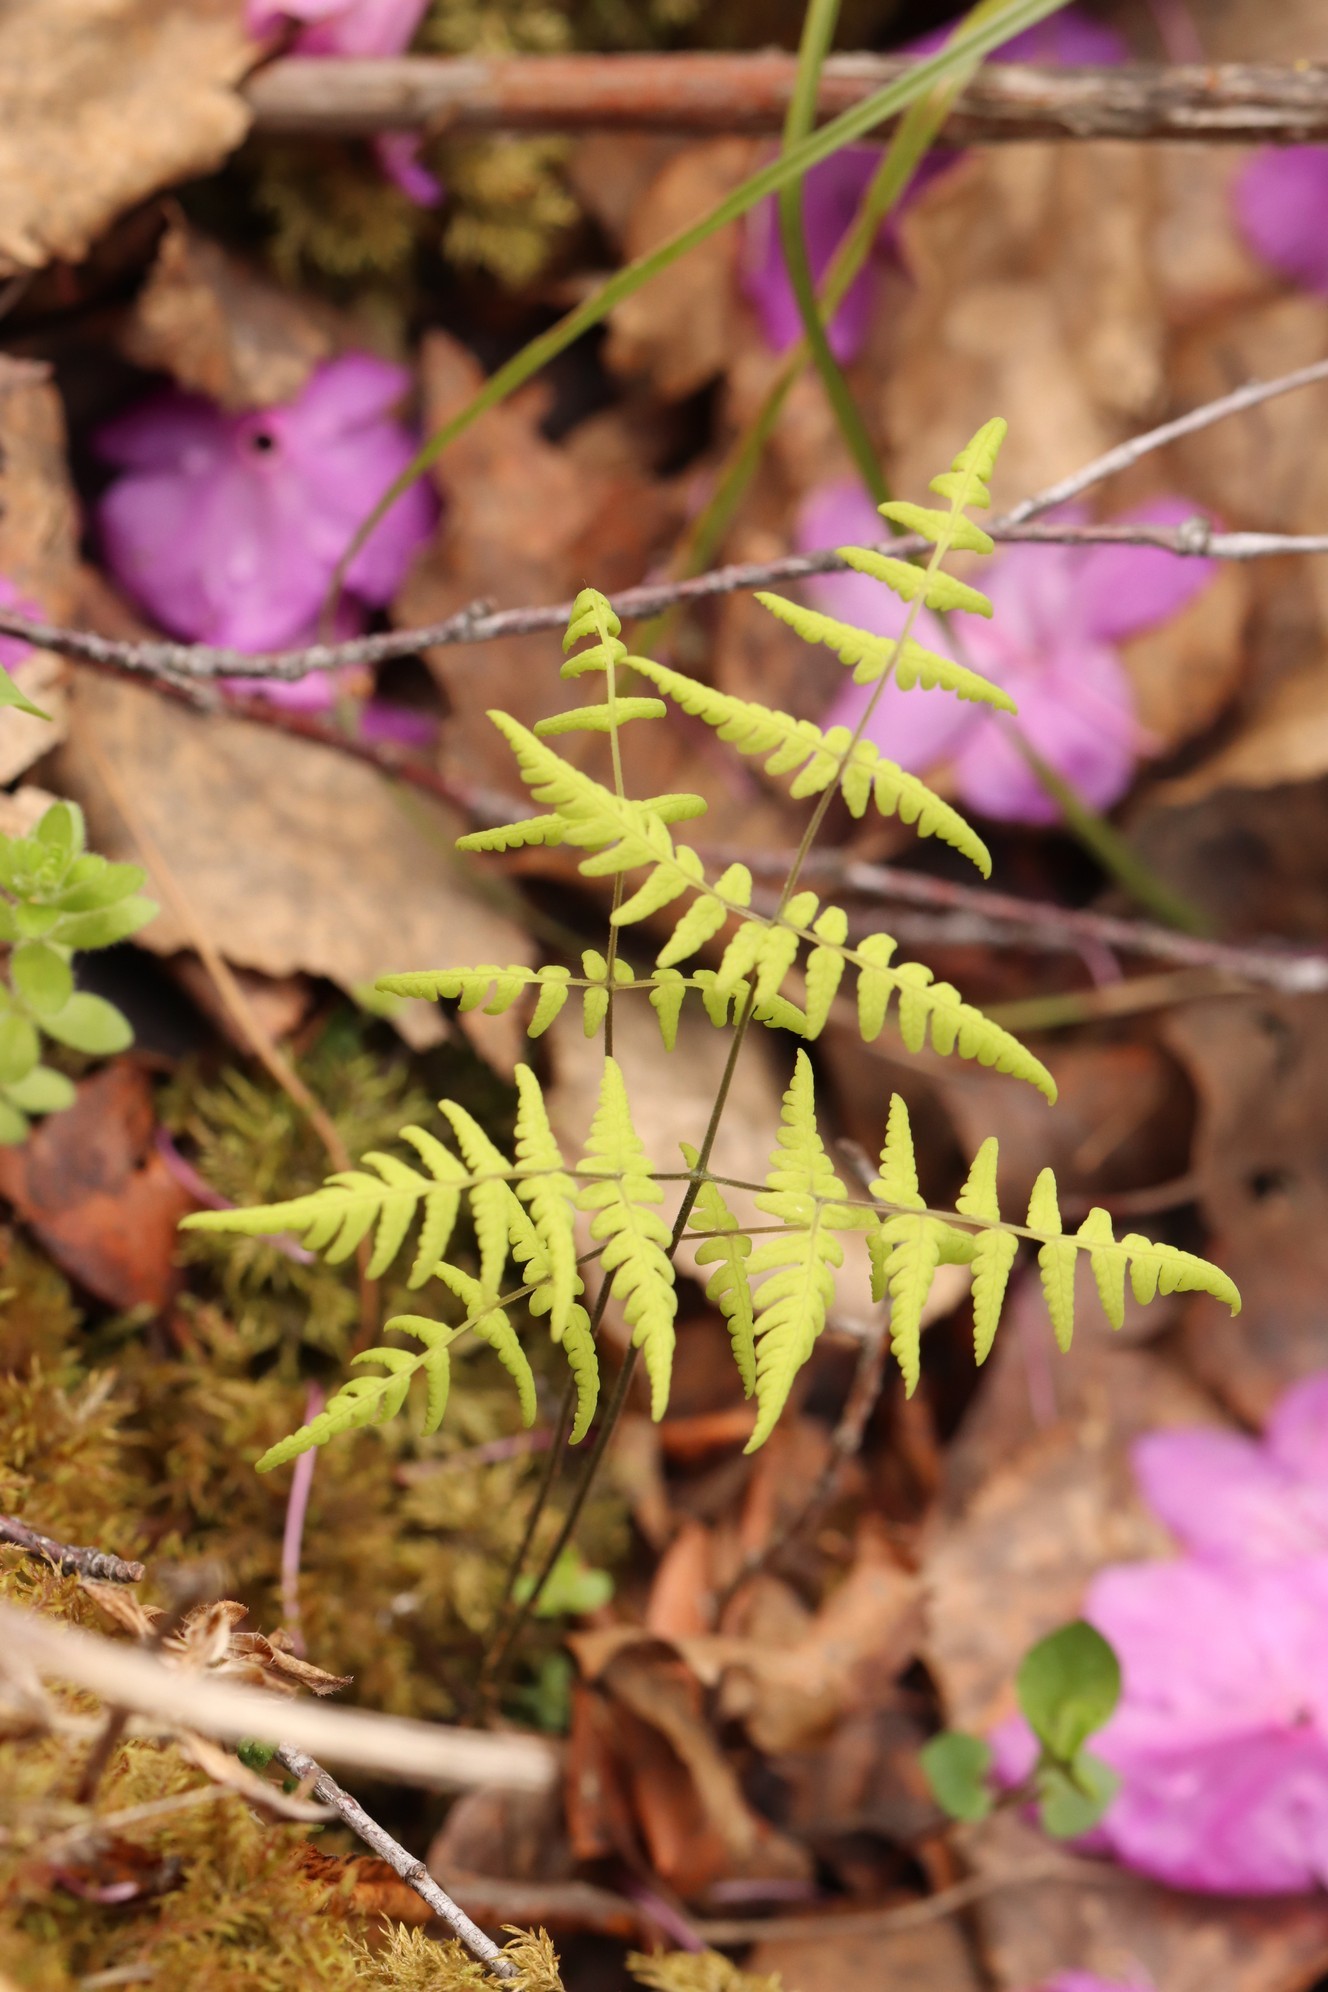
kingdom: Plantae
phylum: Tracheophyta
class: Polypodiopsida
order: Polypodiales
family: Cystopteridaceae
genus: Gymnocarpium
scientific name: Gymnocarpium dryopteris
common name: Oak fern
